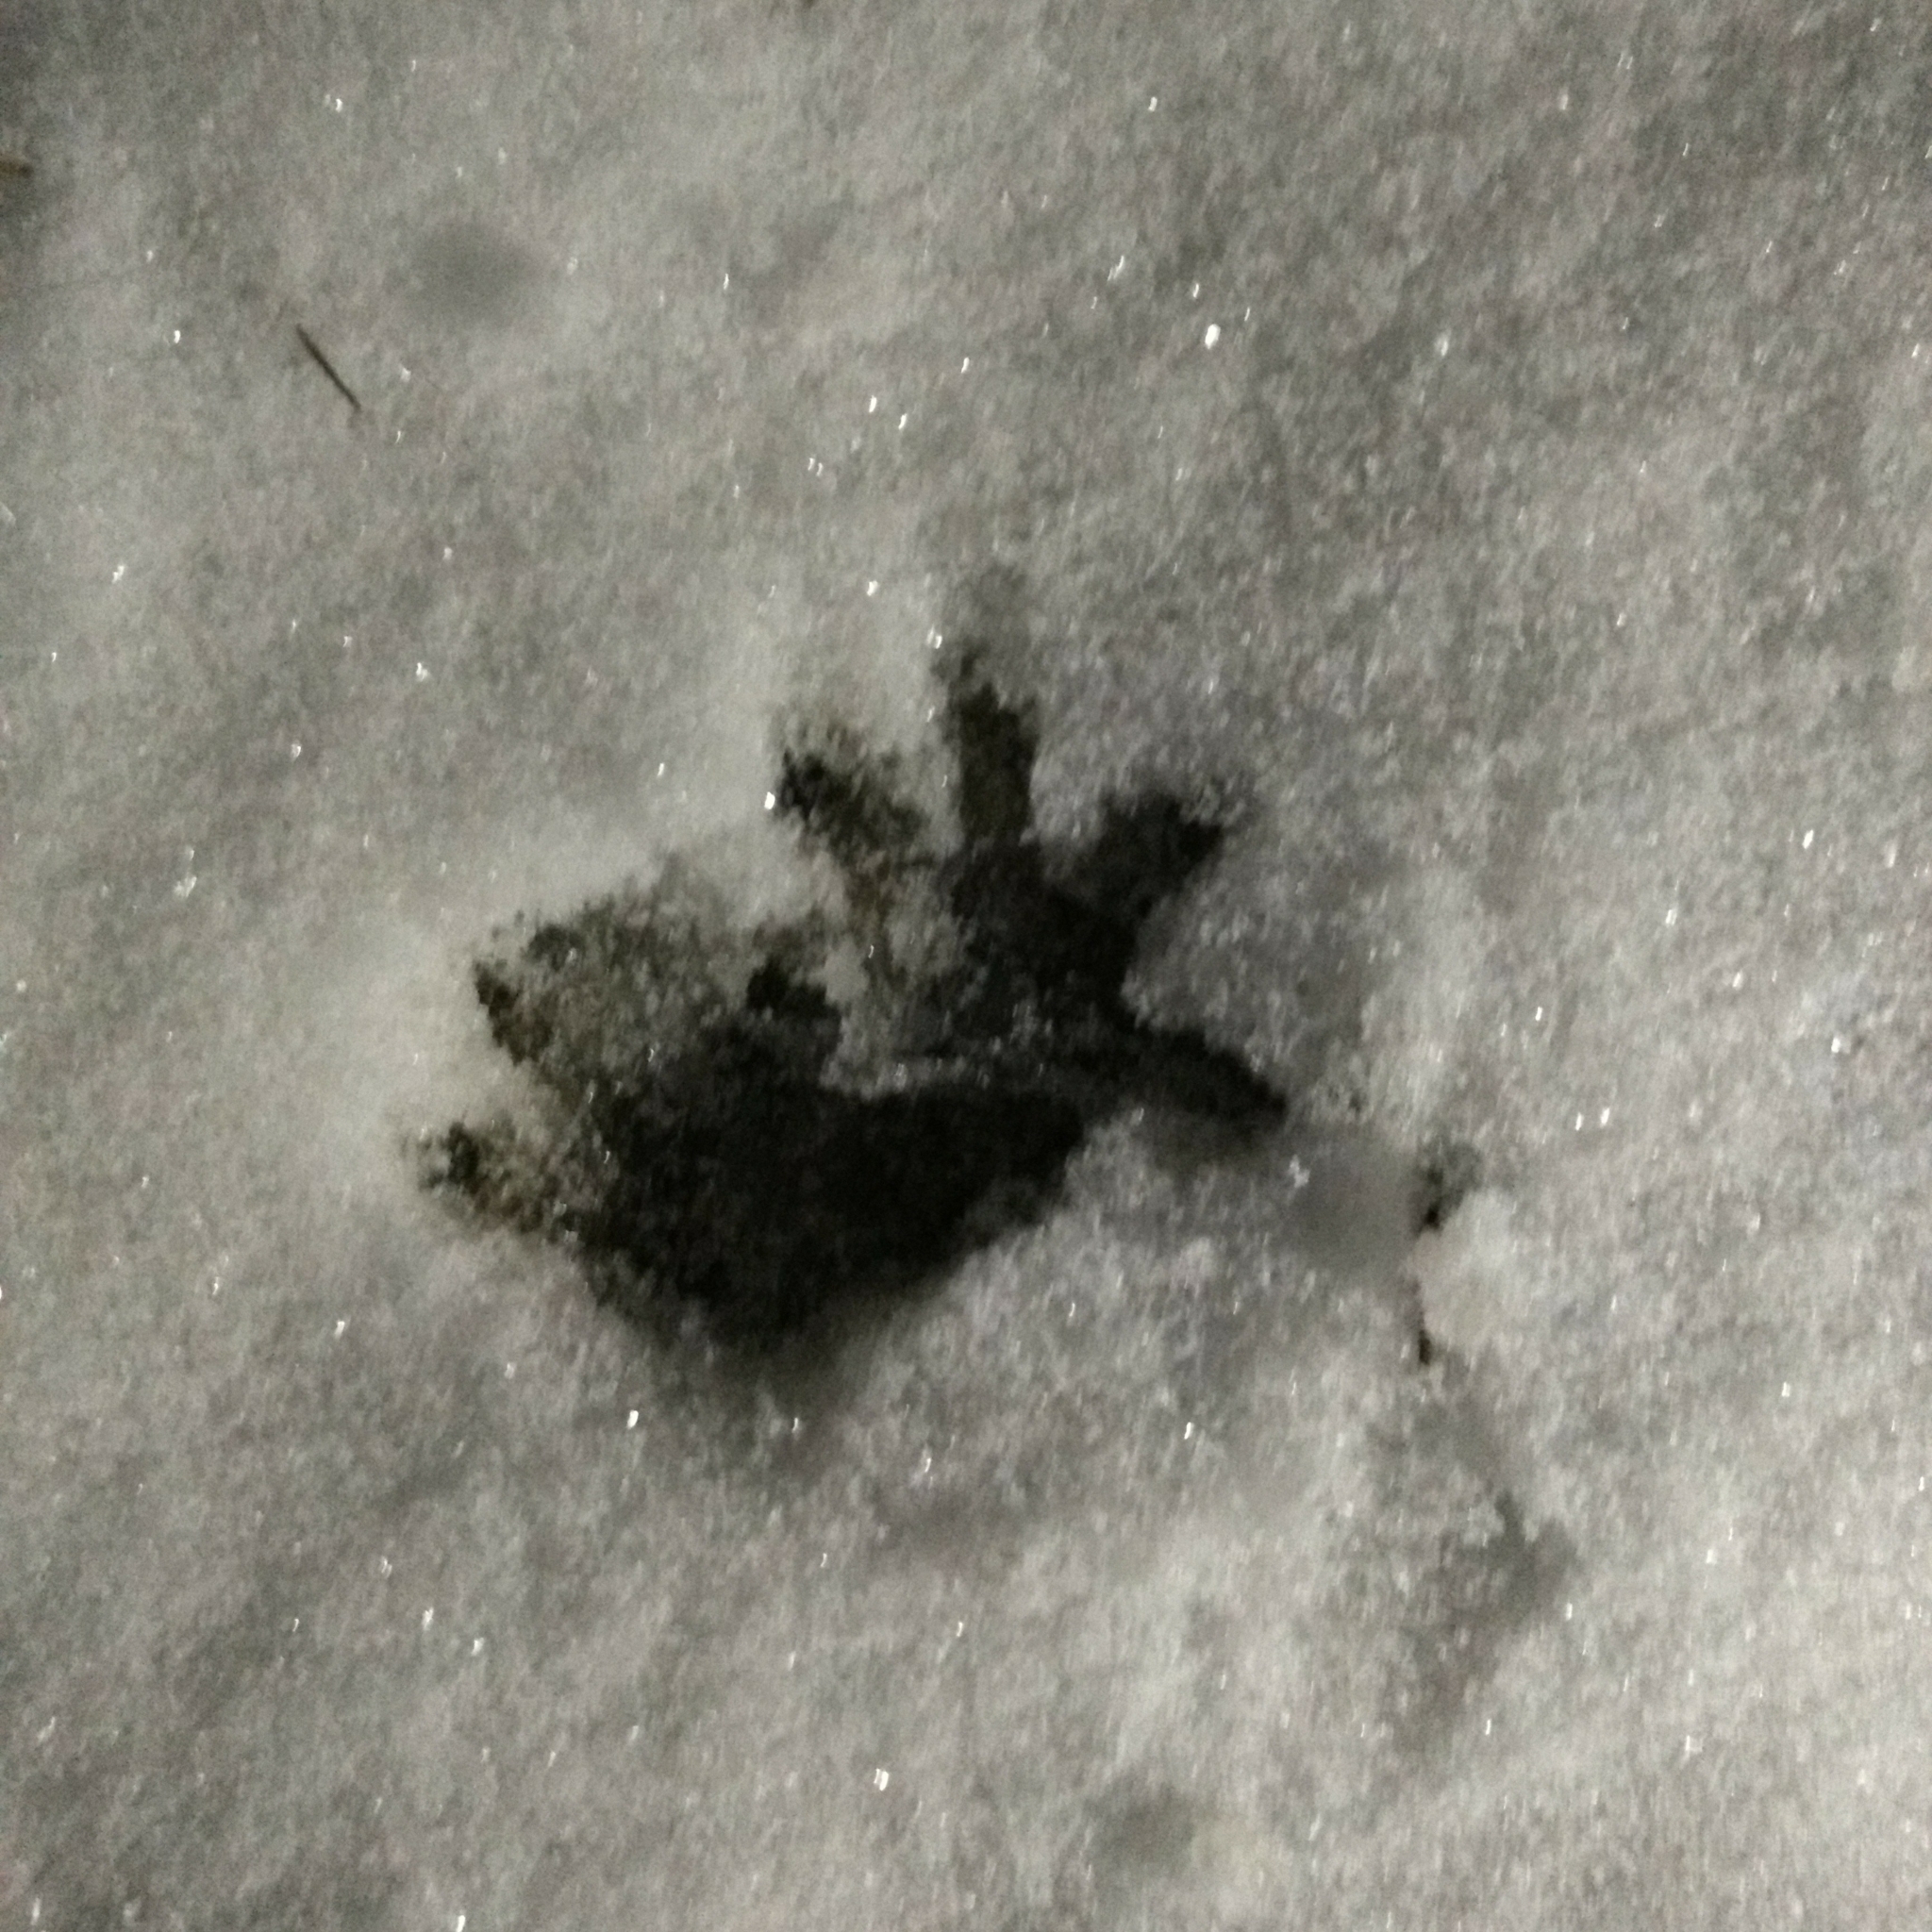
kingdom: Animalia
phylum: Chordata
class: Mammalia
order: Didelphimorphia
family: Didelphidae
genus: Didelphis
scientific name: Didelphis virginiana
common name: Virginia opossum
